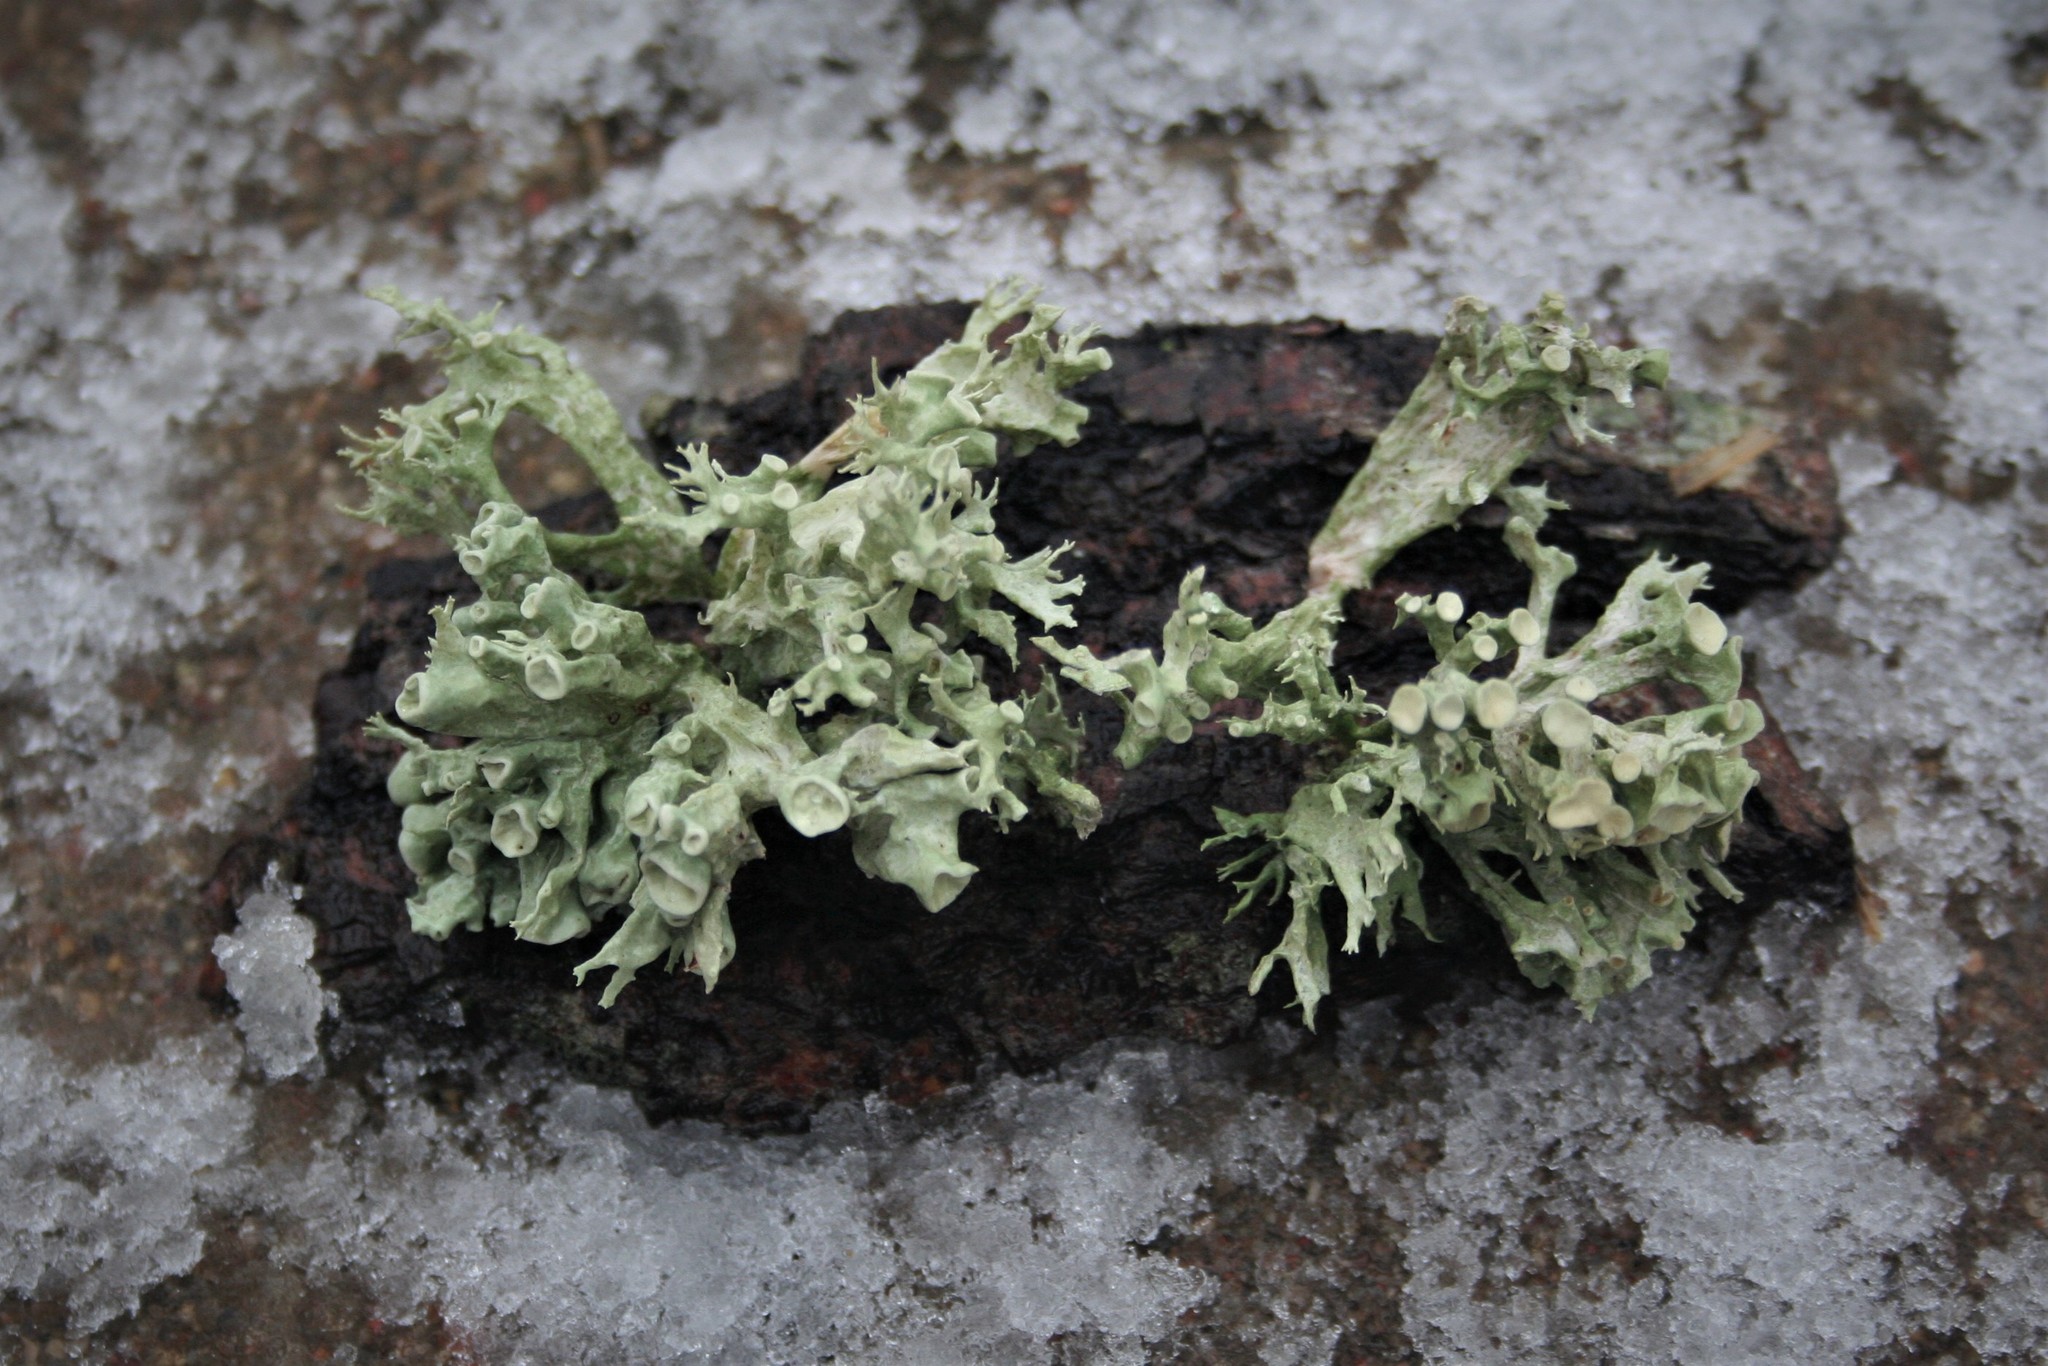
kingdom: Fungi
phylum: Ascomycota
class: Lecanoromycetes
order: Lecanorales
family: Ramalinaceae
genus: Ramalina
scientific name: Ramalina fastigiata
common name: Dotted ribbon lichen
